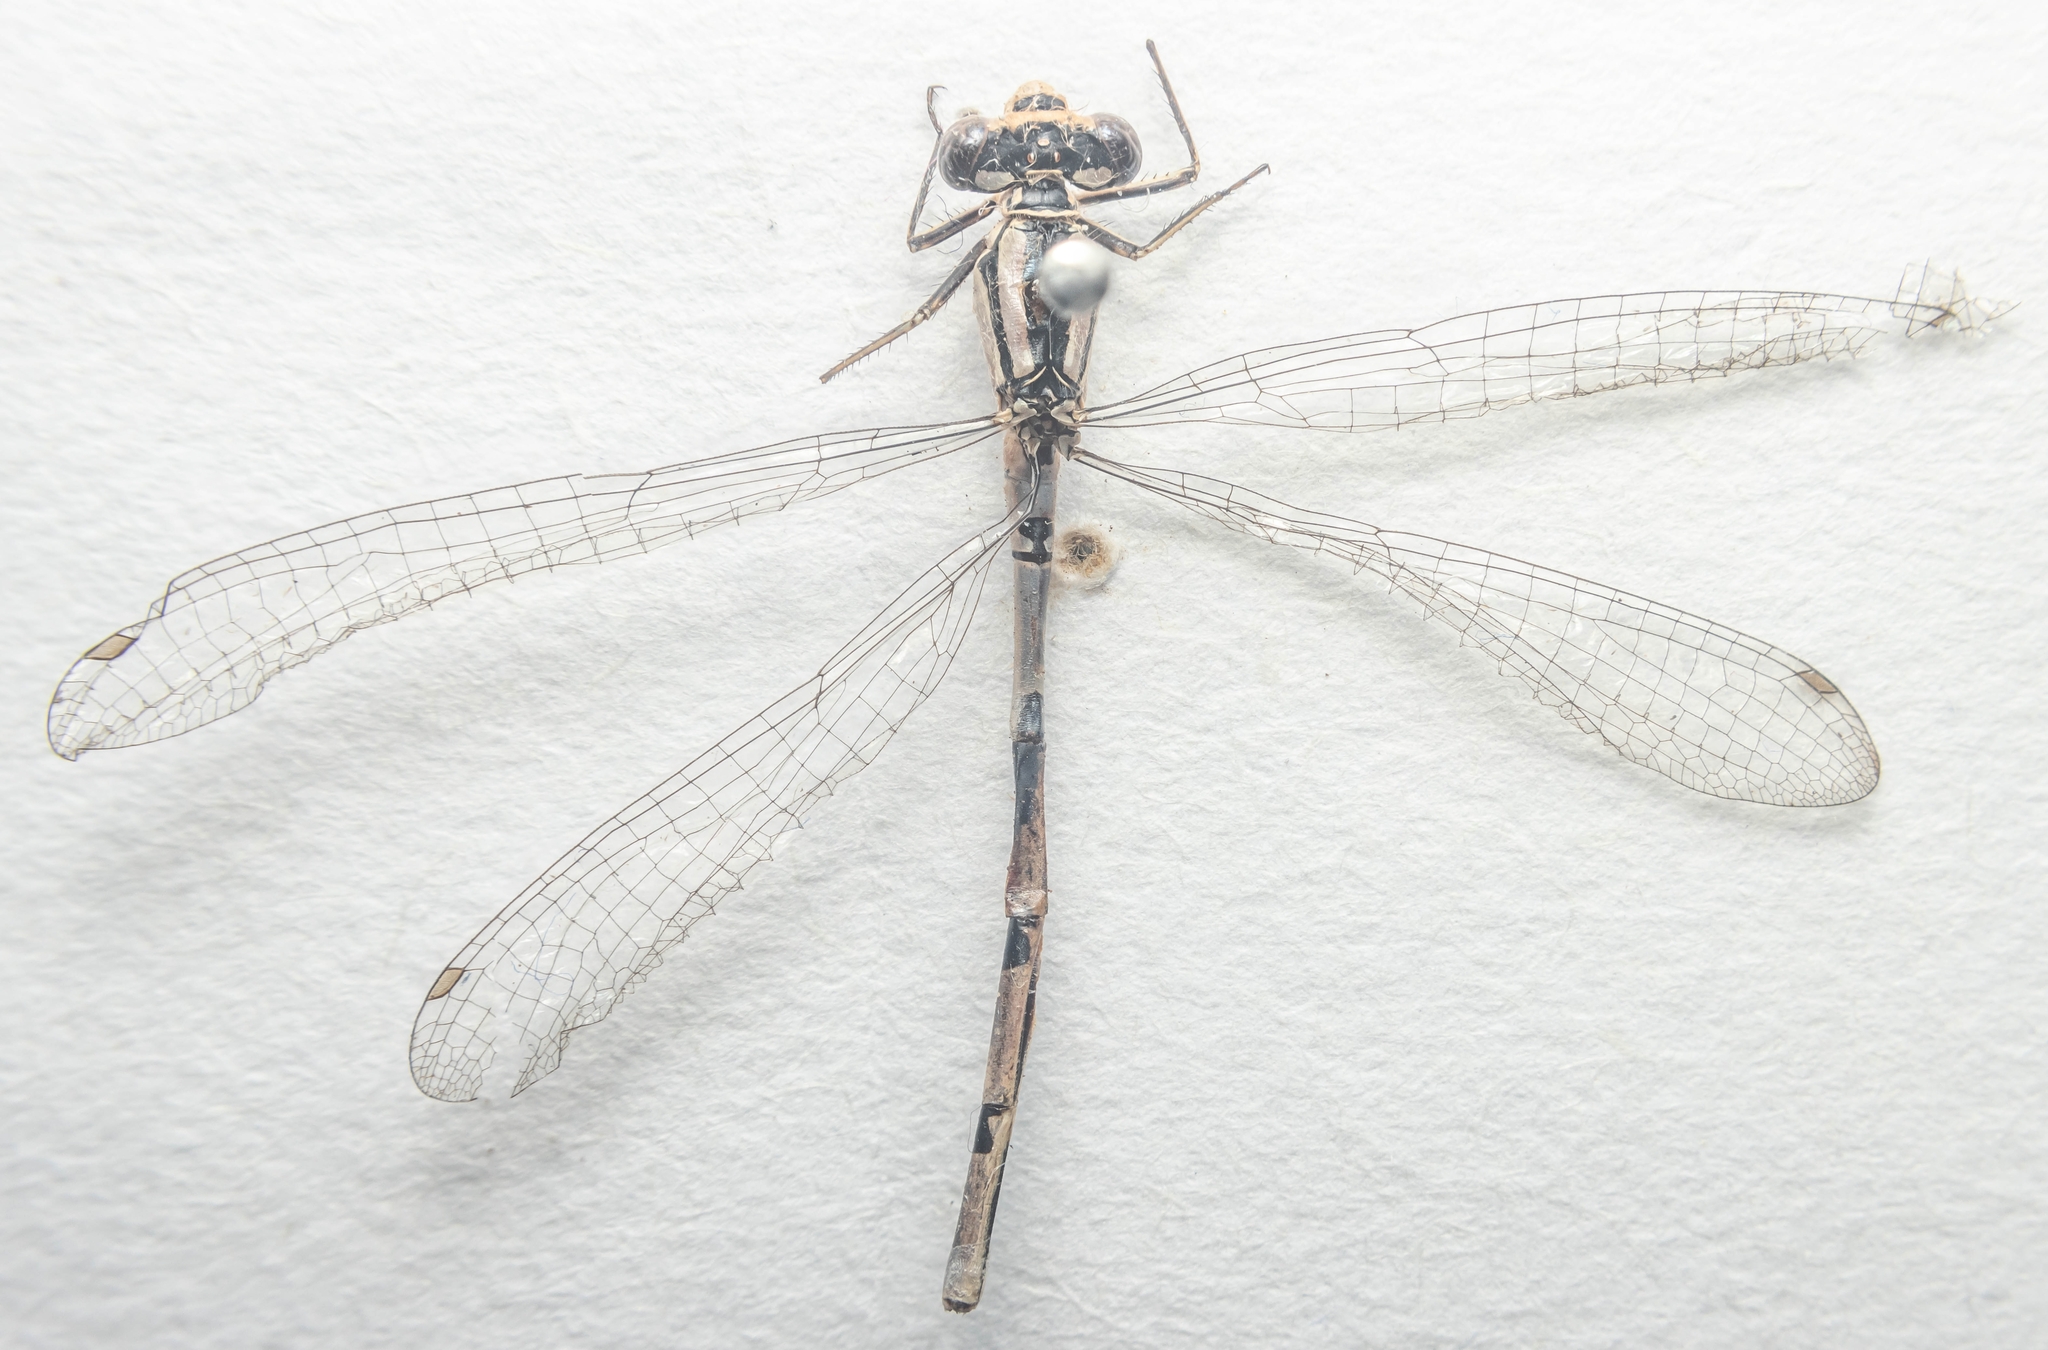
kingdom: Animalia
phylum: Arthropoda
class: Insecta
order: Odonata
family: Coenagrionidae
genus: Enallagma
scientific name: Enallagma cyathigerum
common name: Common blue damselfly
